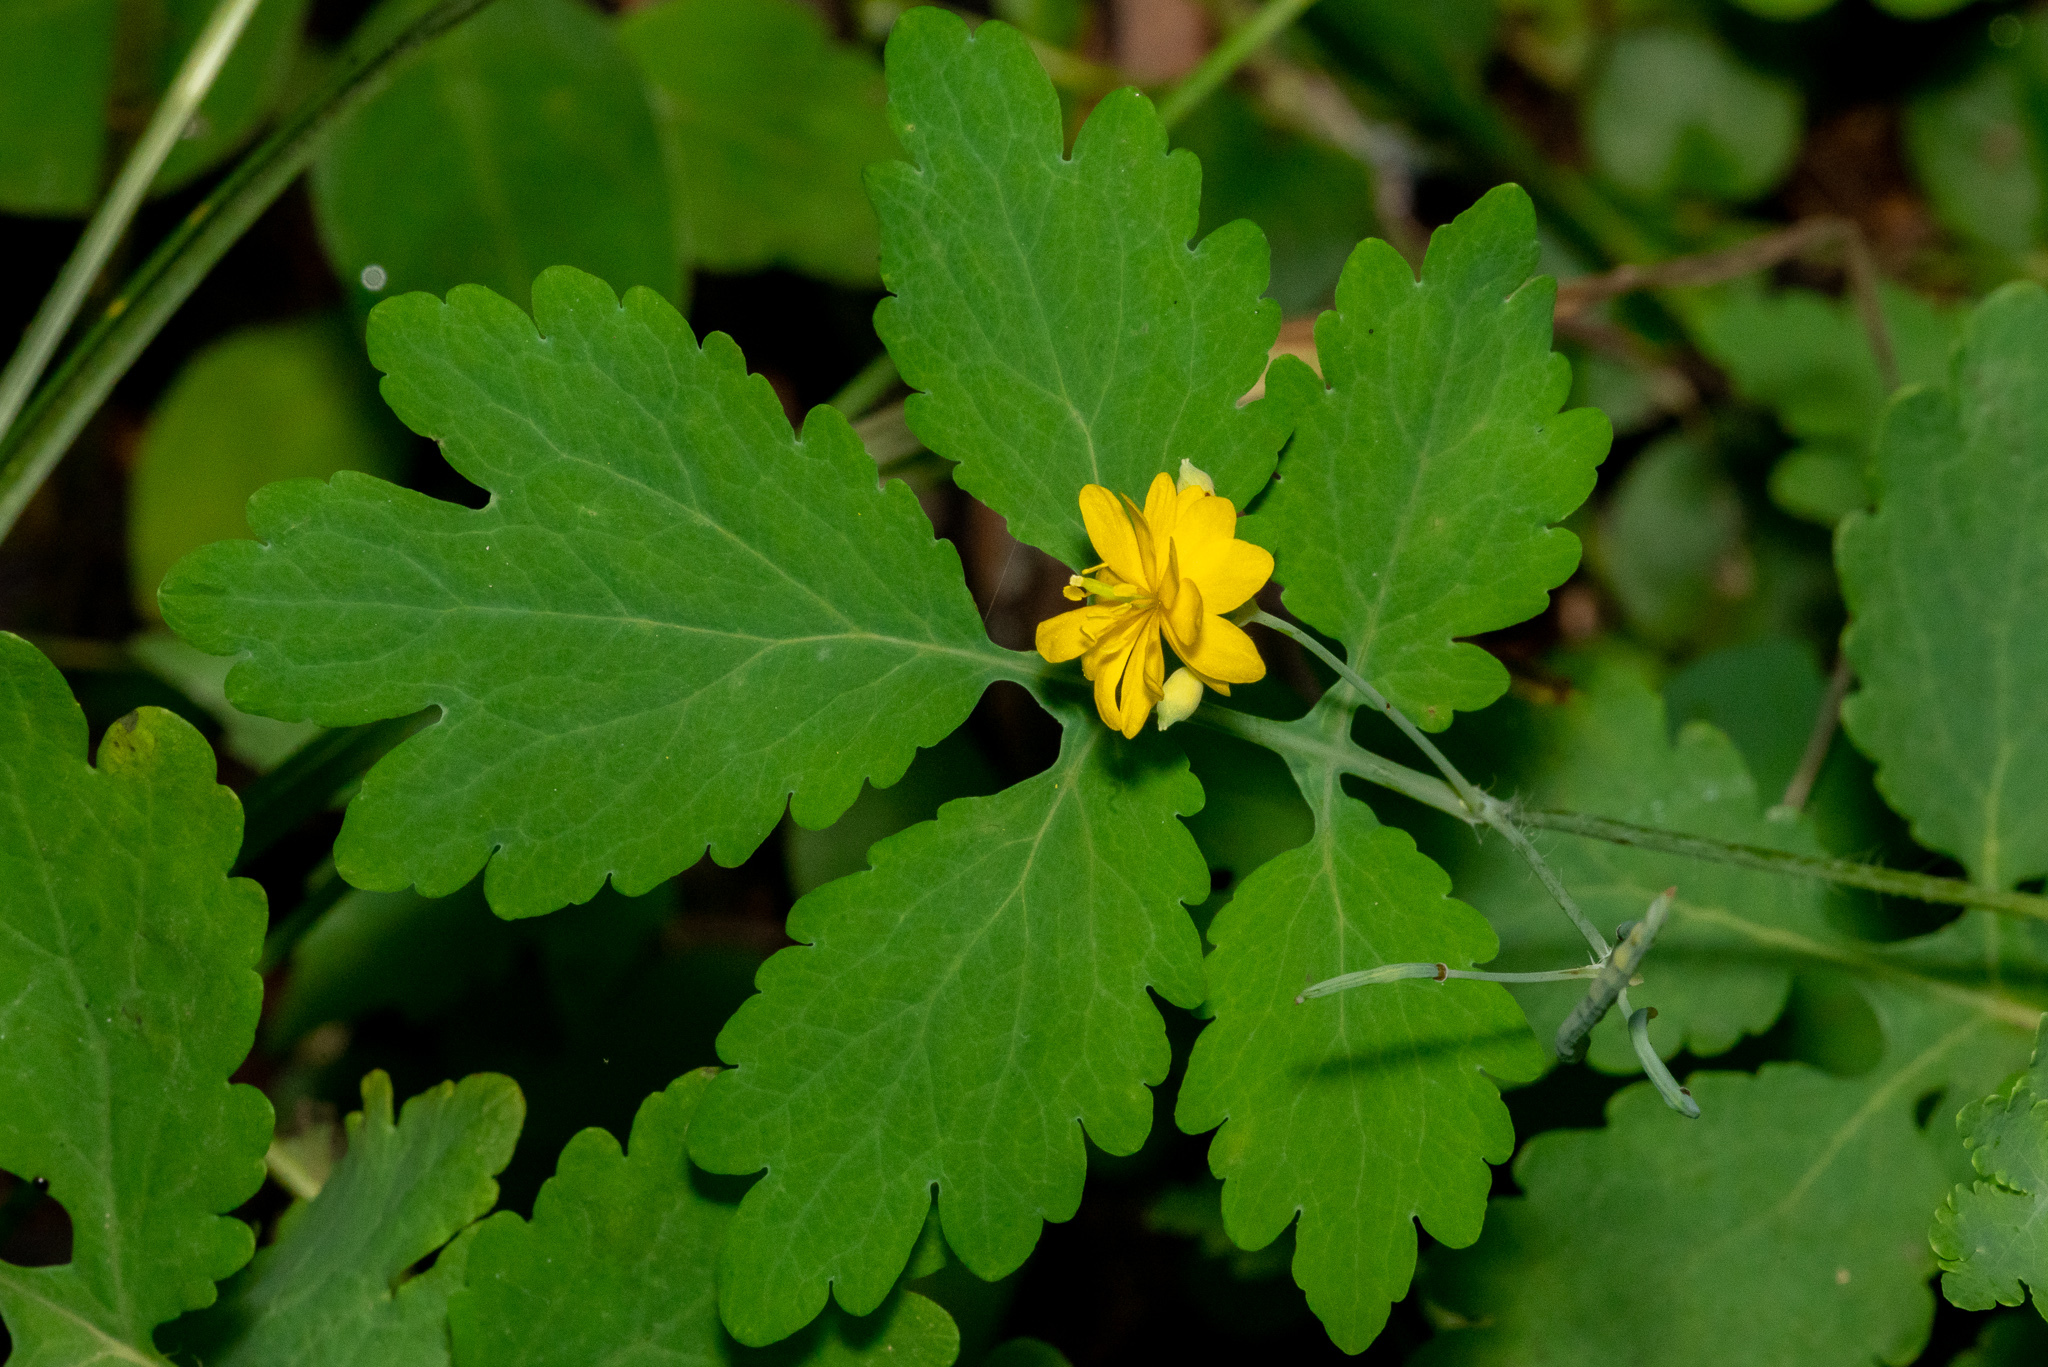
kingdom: Plantae
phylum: Tracheophyta
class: Magnoliopsida
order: Ranunculales
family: Papaveraceae
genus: Chelidonium
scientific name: Chelidonium majus
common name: Greater celandine
